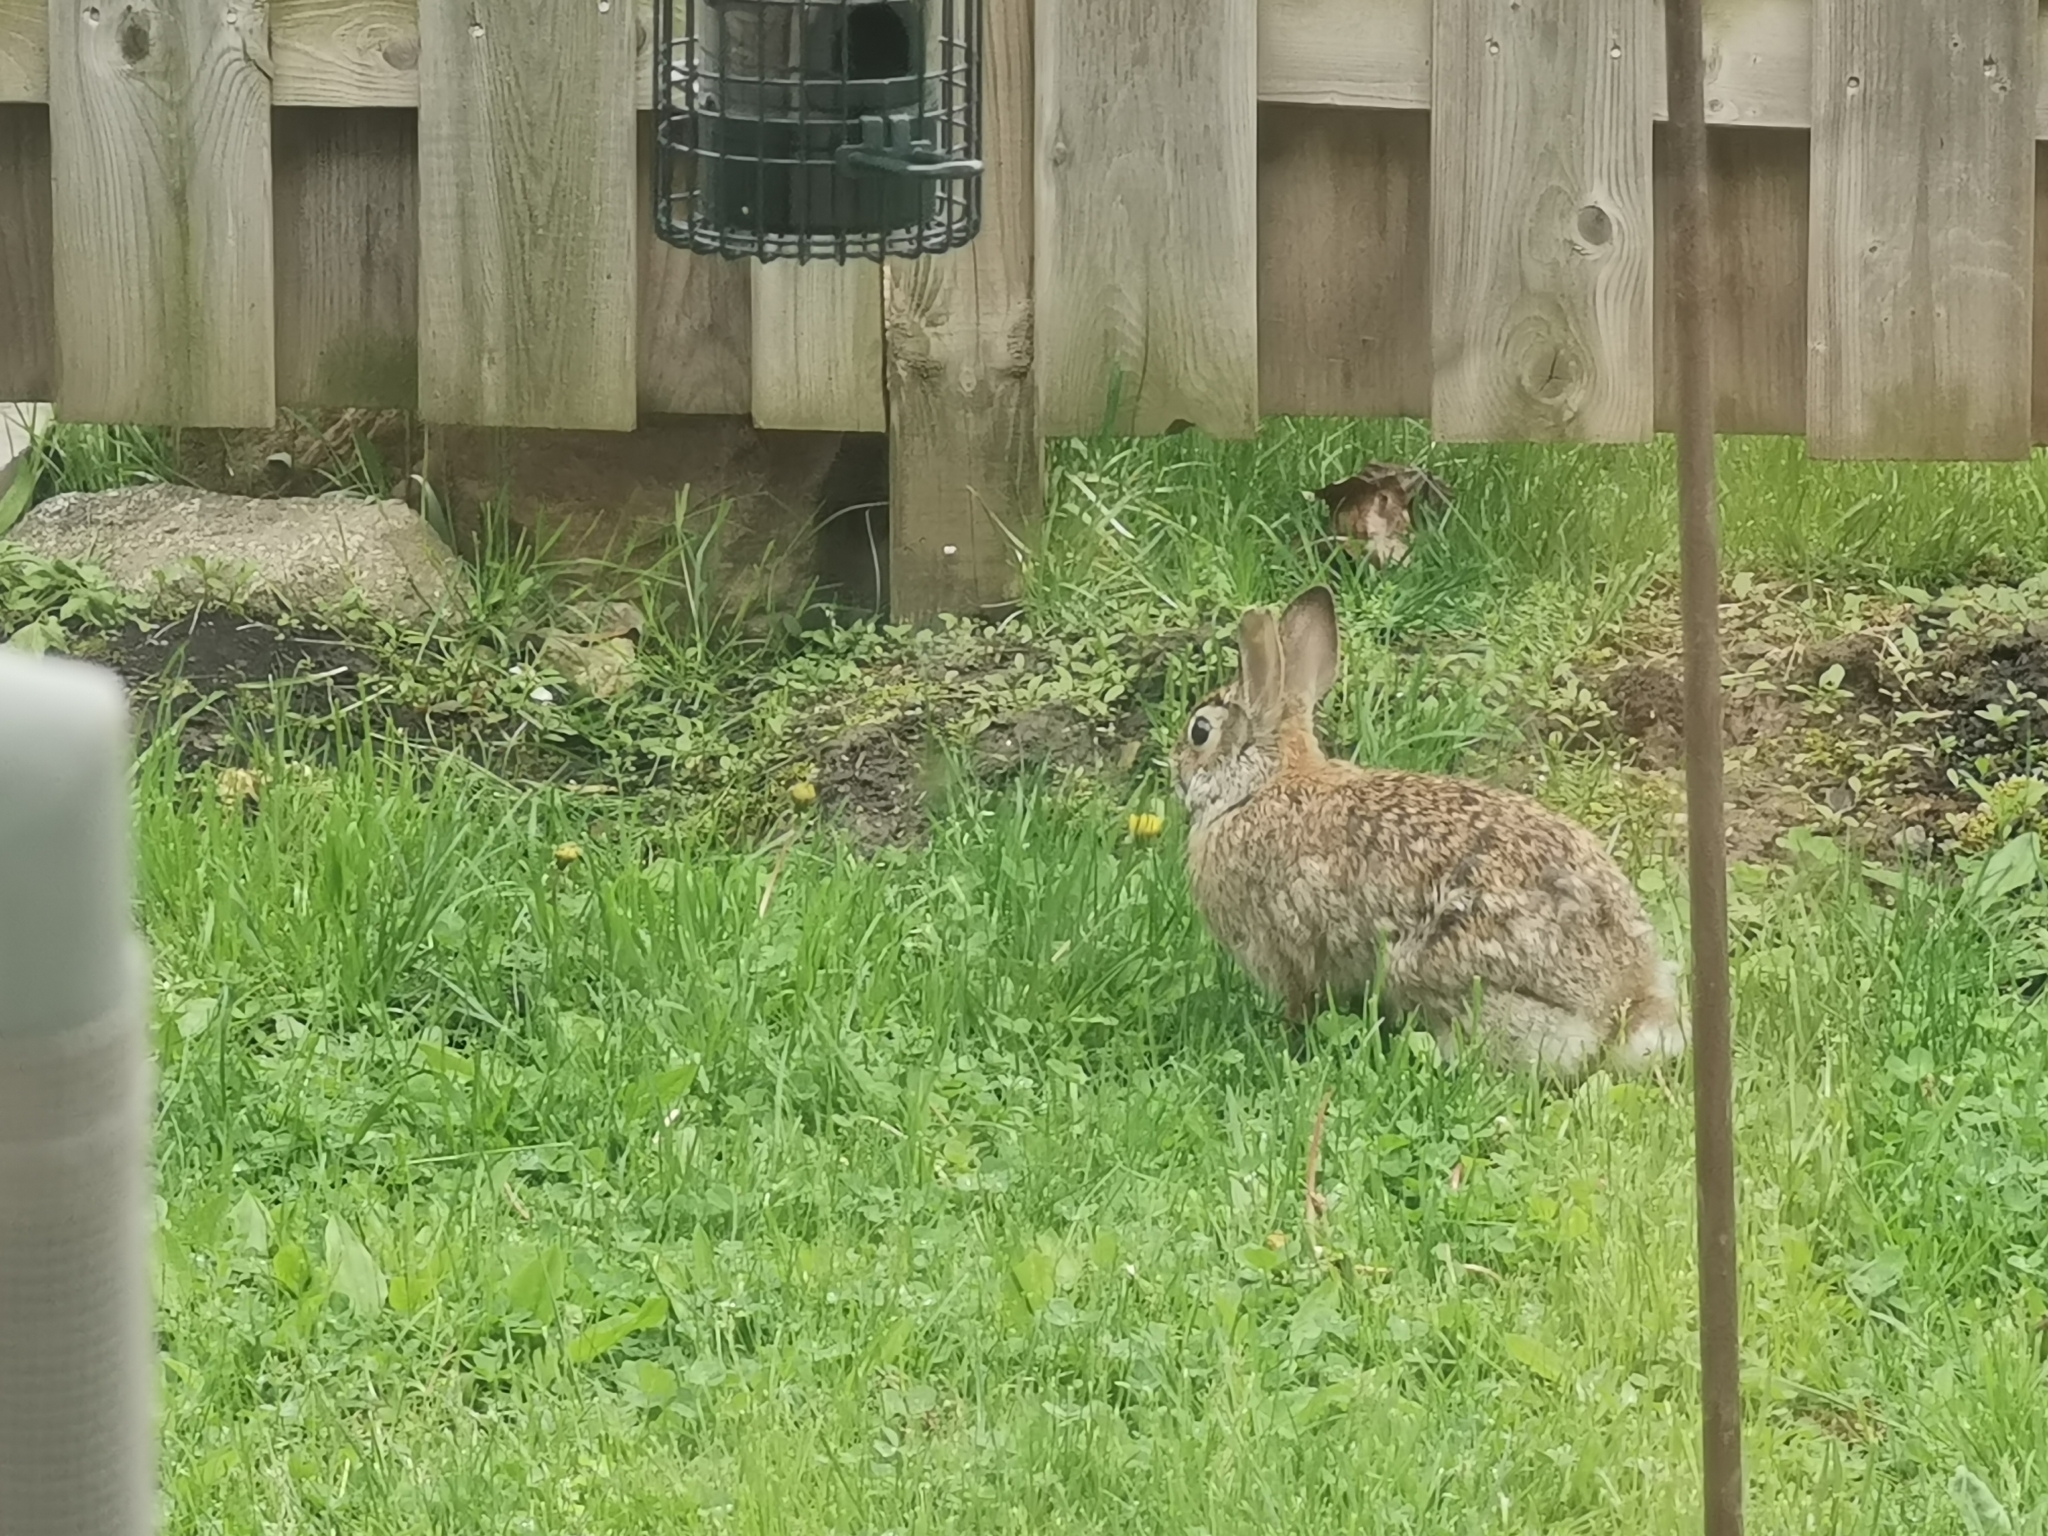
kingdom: Animalia
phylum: Chordata
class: Mammalia
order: Lagomorpha
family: Leporidae
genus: Sylvilagus
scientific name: Sylvilagus floridanus
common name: Eastern cottontail
